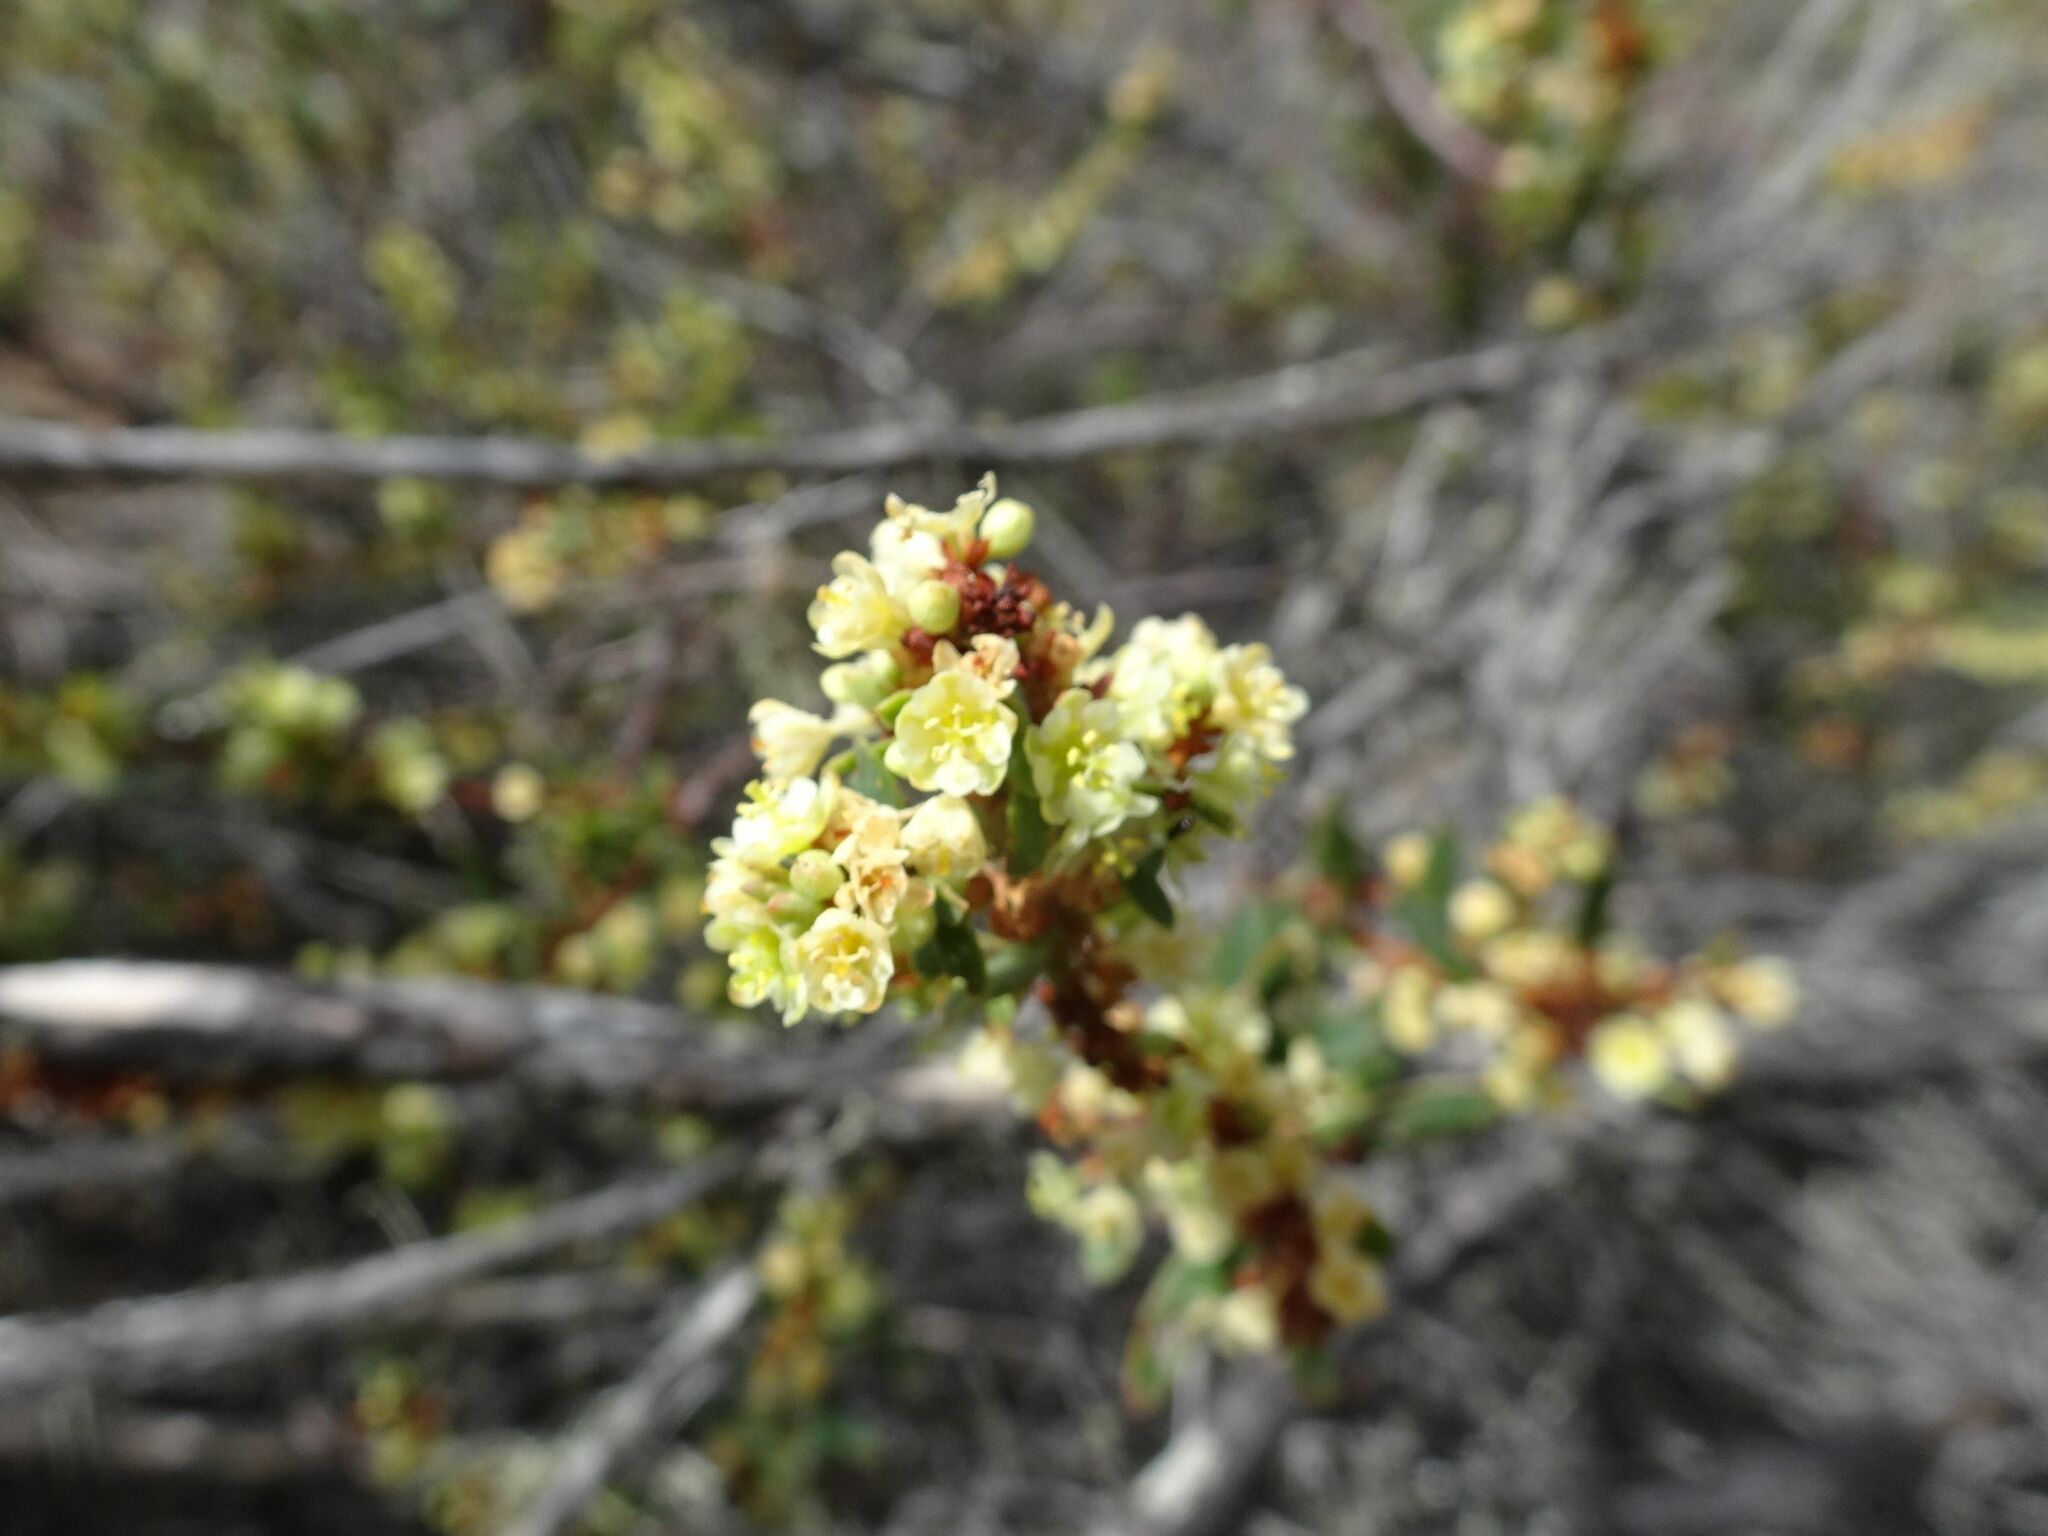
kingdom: Plantae
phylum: Tracheophyta
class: Magnoliopsida
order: Malpighiales
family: Peraceae
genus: Clutia
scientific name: Clutia laxa
